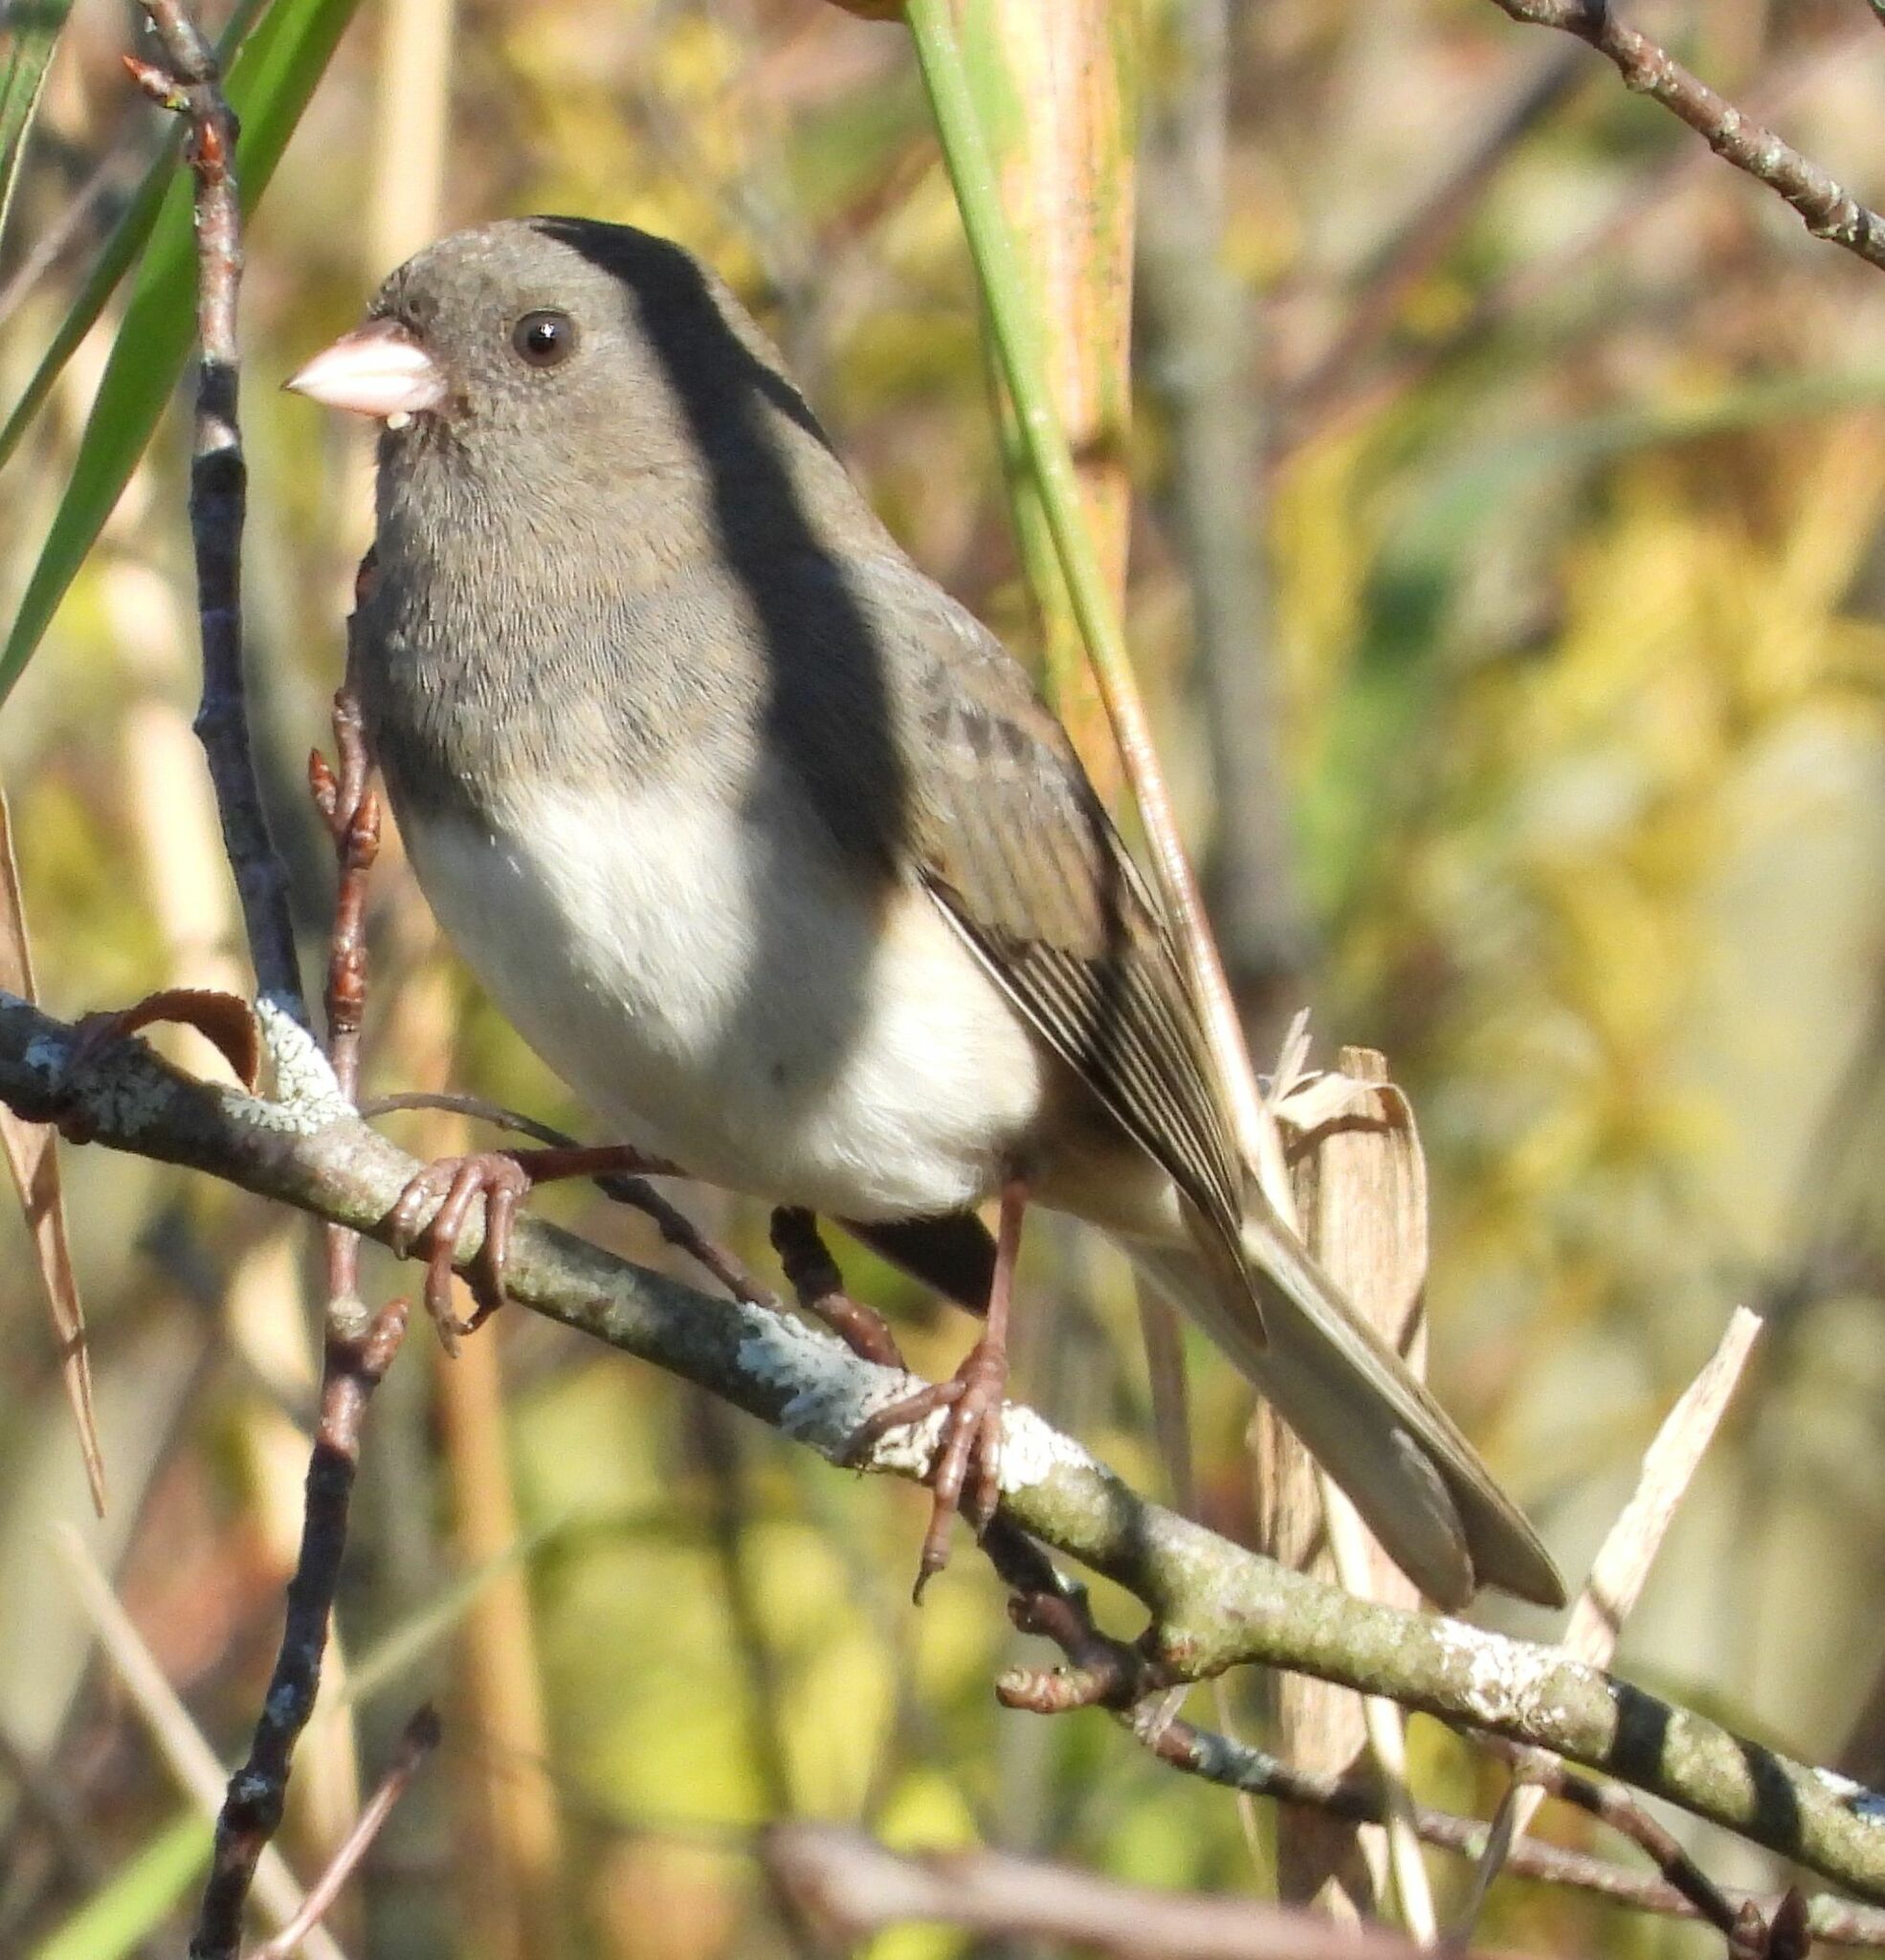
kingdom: Animalia
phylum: Chordata
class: Aves
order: Passeriformes
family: Passerellidae
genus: Junco
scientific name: Junco hyemalis
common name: Dark-eyed junco
